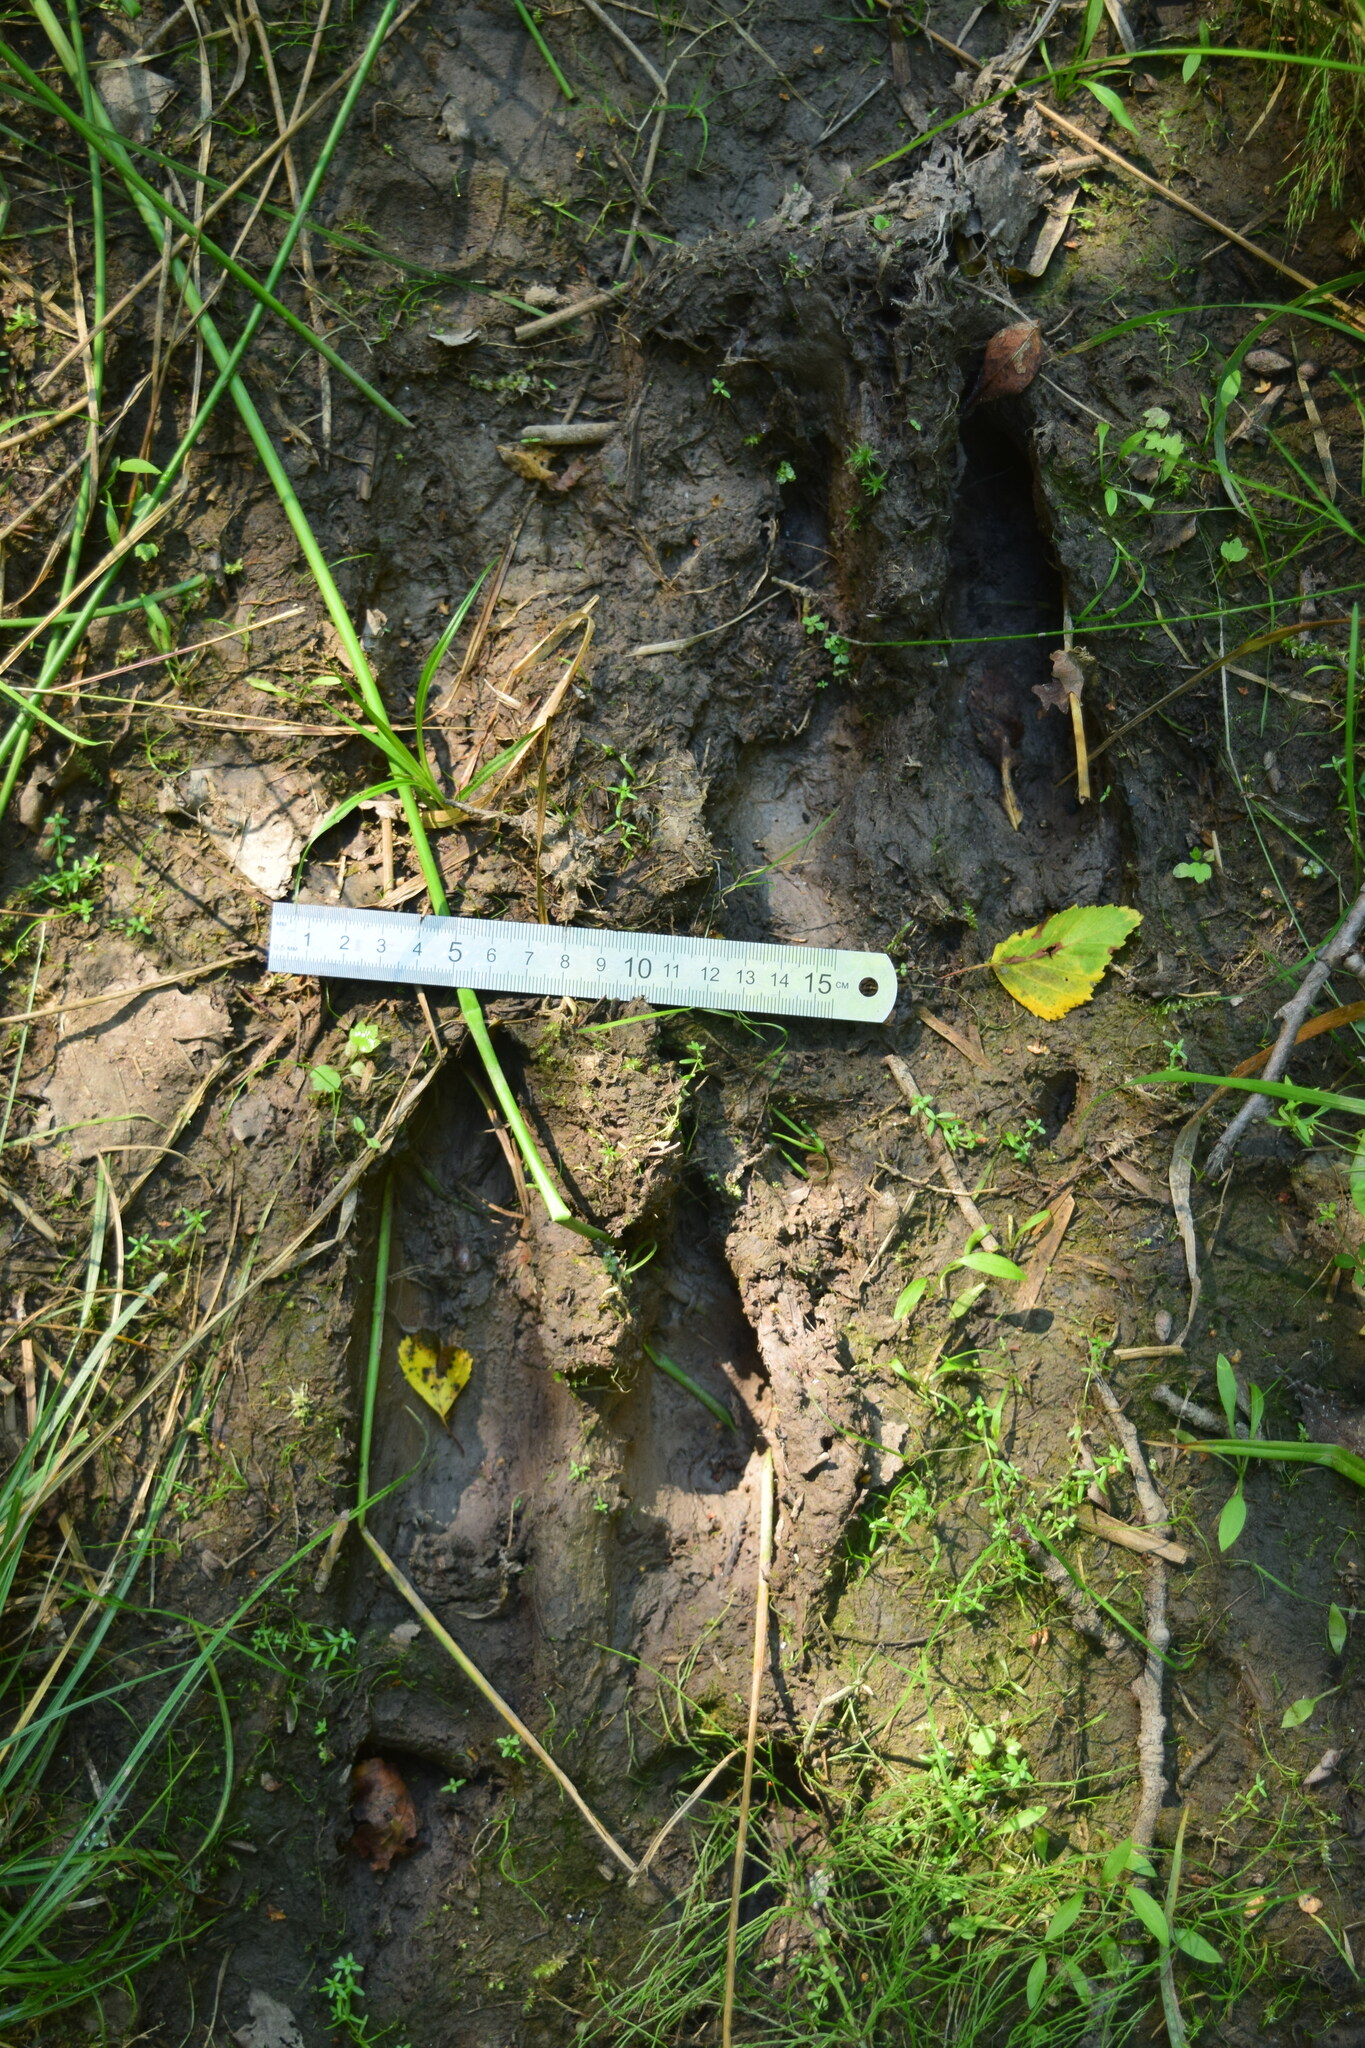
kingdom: Animalia
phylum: Chordata
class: Mammalia
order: Artiodactyla
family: Cervidae
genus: Alces
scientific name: Alces alces
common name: Moose
